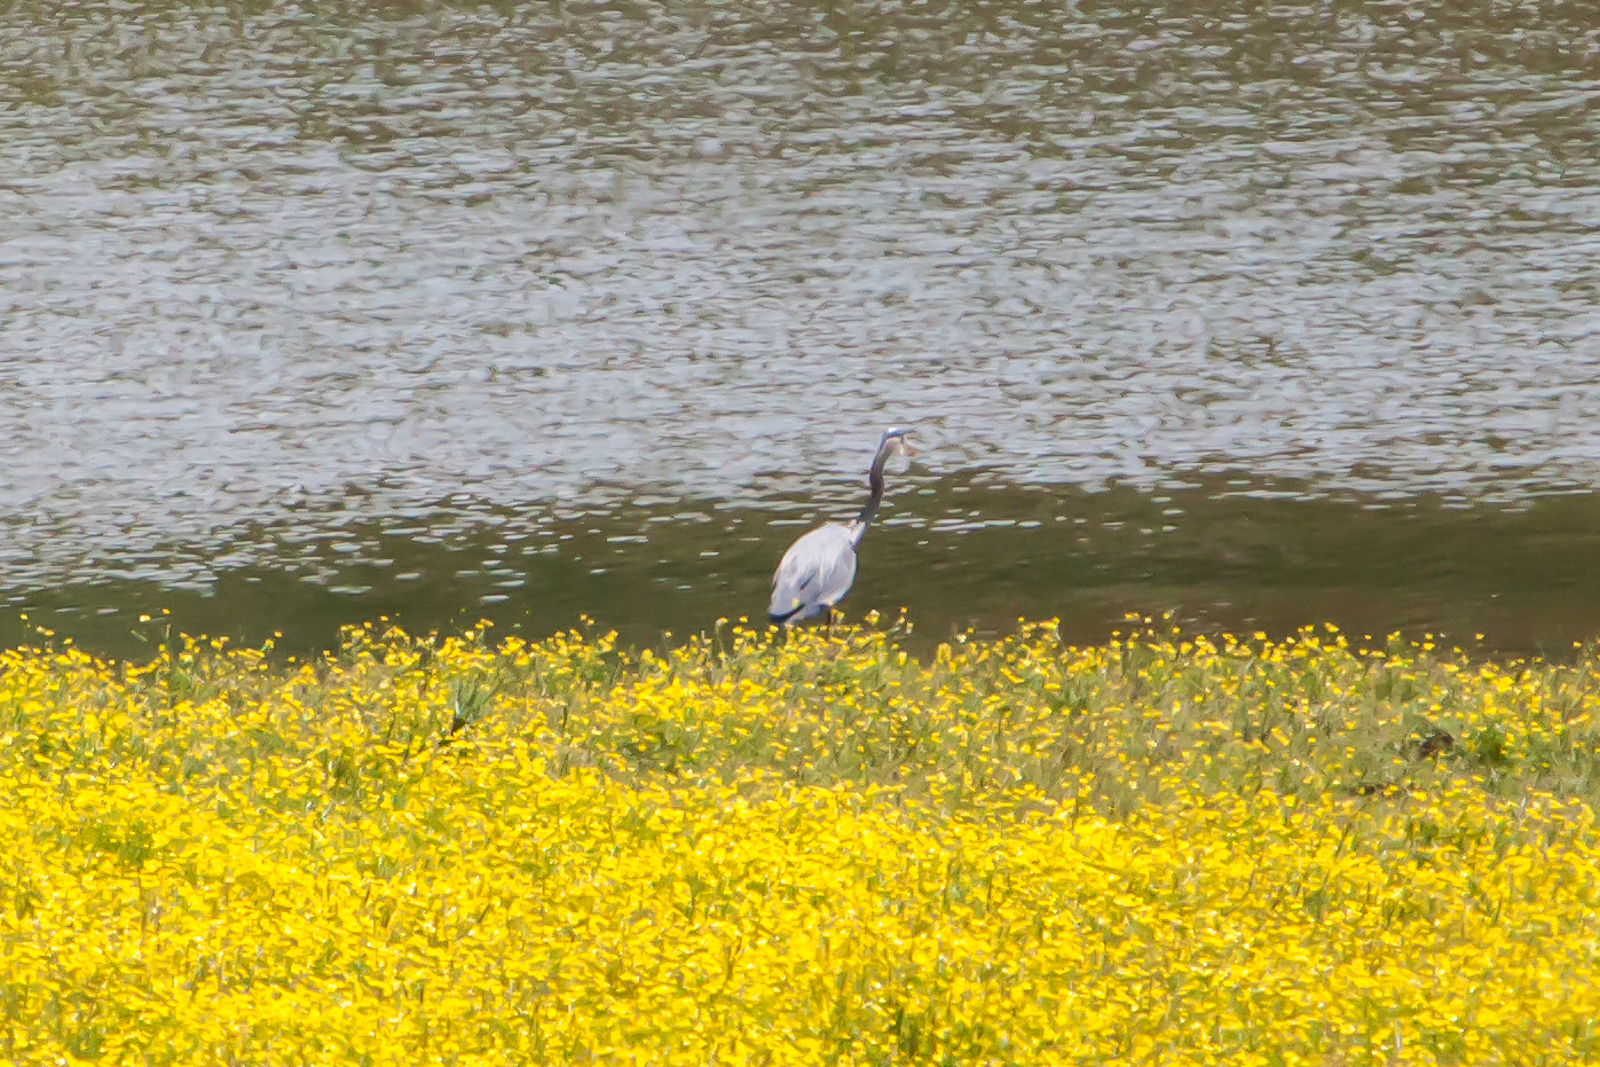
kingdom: Animalia
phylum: Chordata
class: Aves
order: Pelecaniformes
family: Ardeidae
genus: Ardea
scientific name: Ardea herodias
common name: Great blue heron
